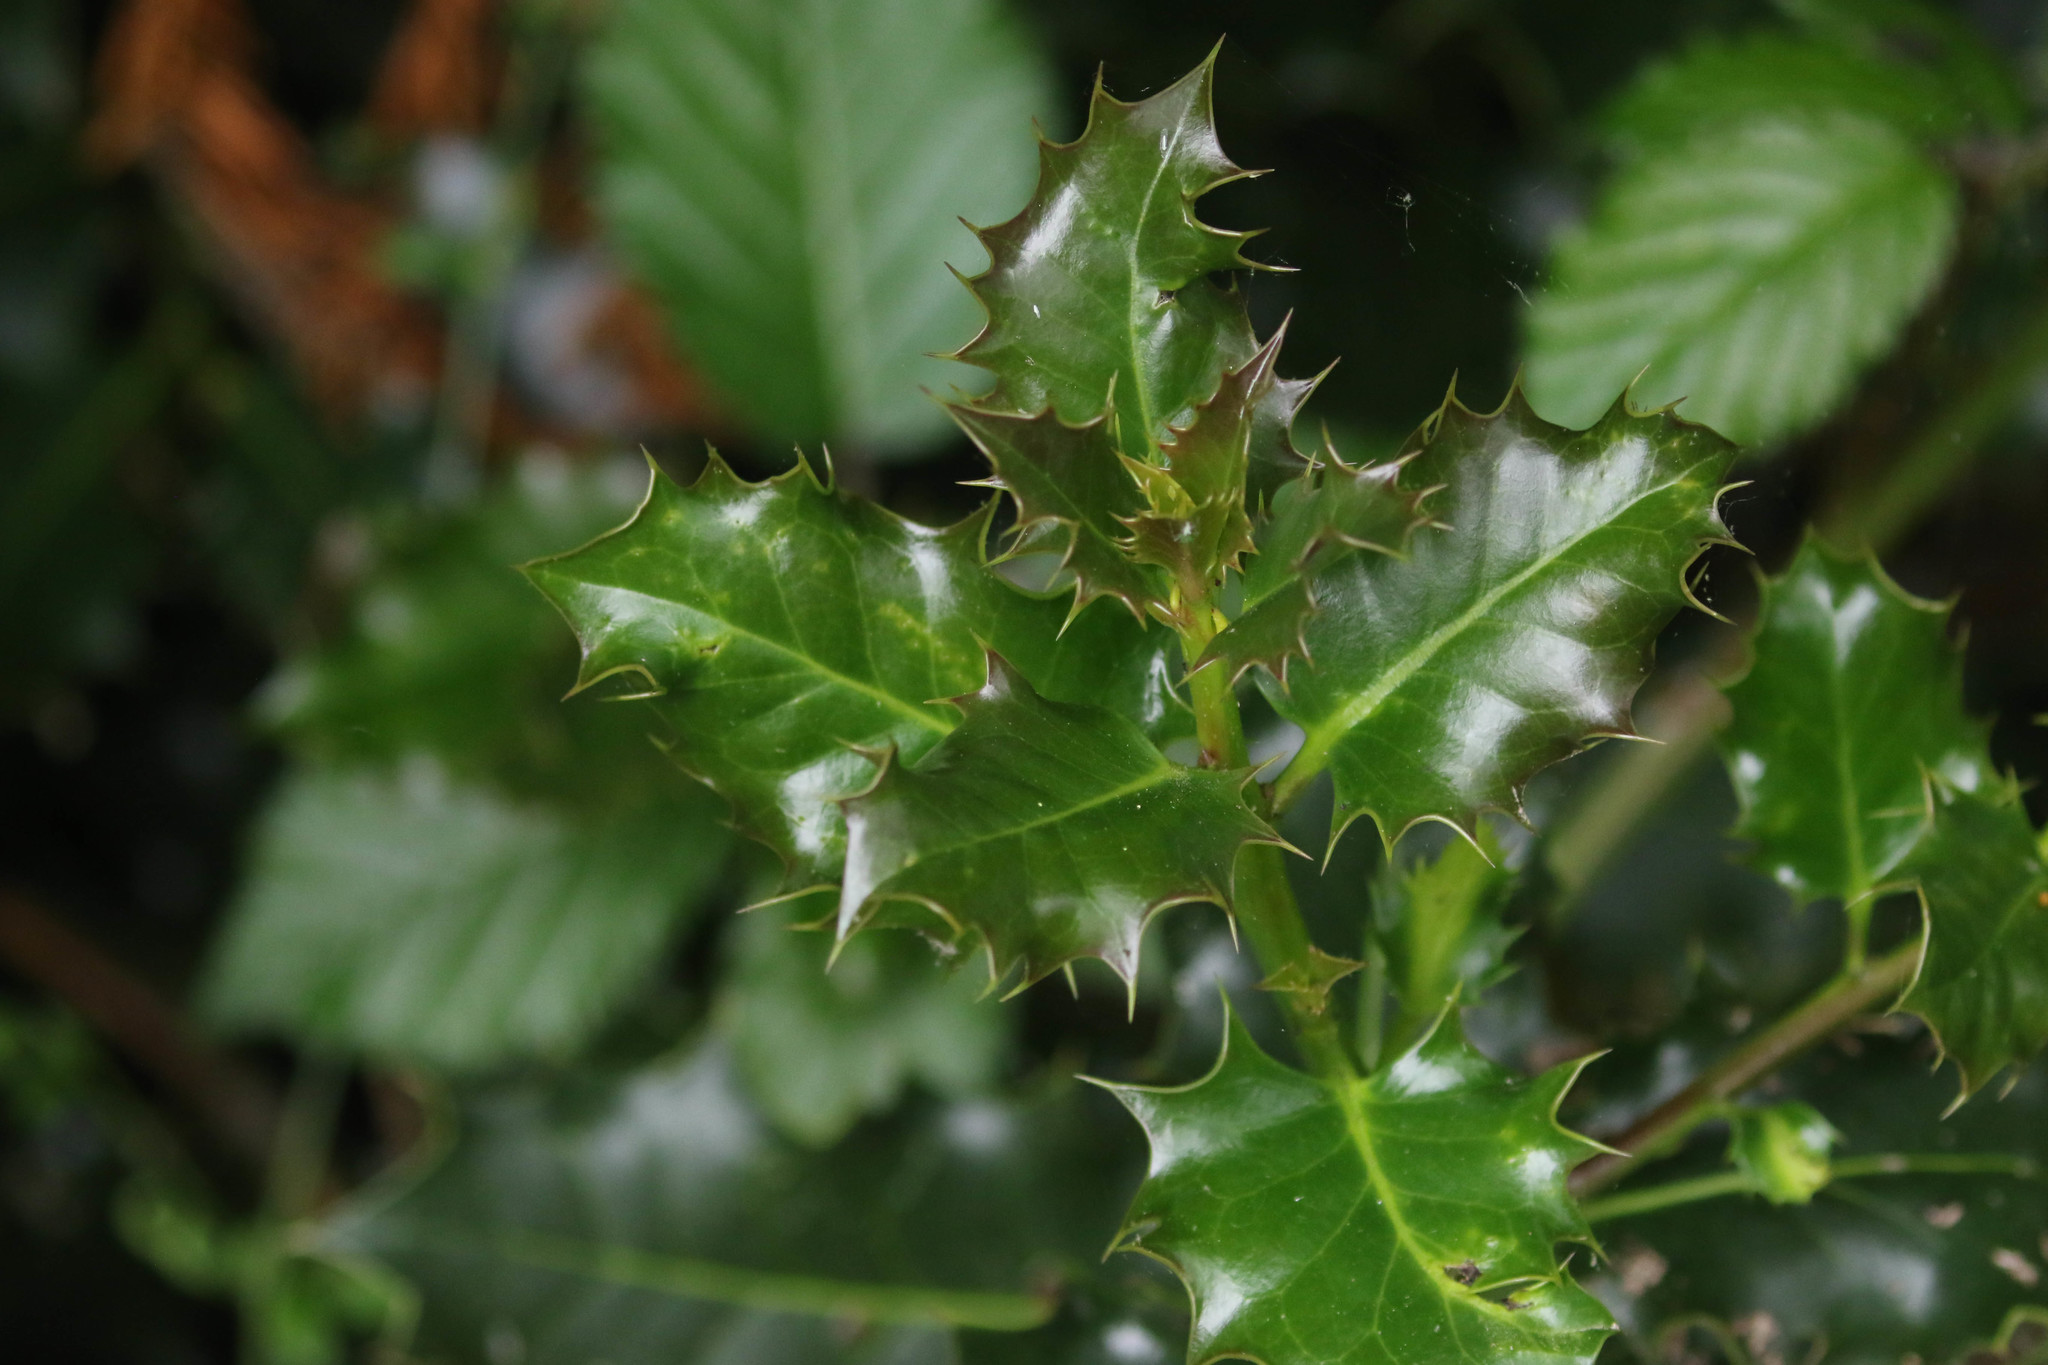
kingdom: Plantae
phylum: Tracheophyta
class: Magnoliopsida
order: Aquifoliales
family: Aquifoliaceae
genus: Ilex
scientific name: Ilex aquifolium
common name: English holly
